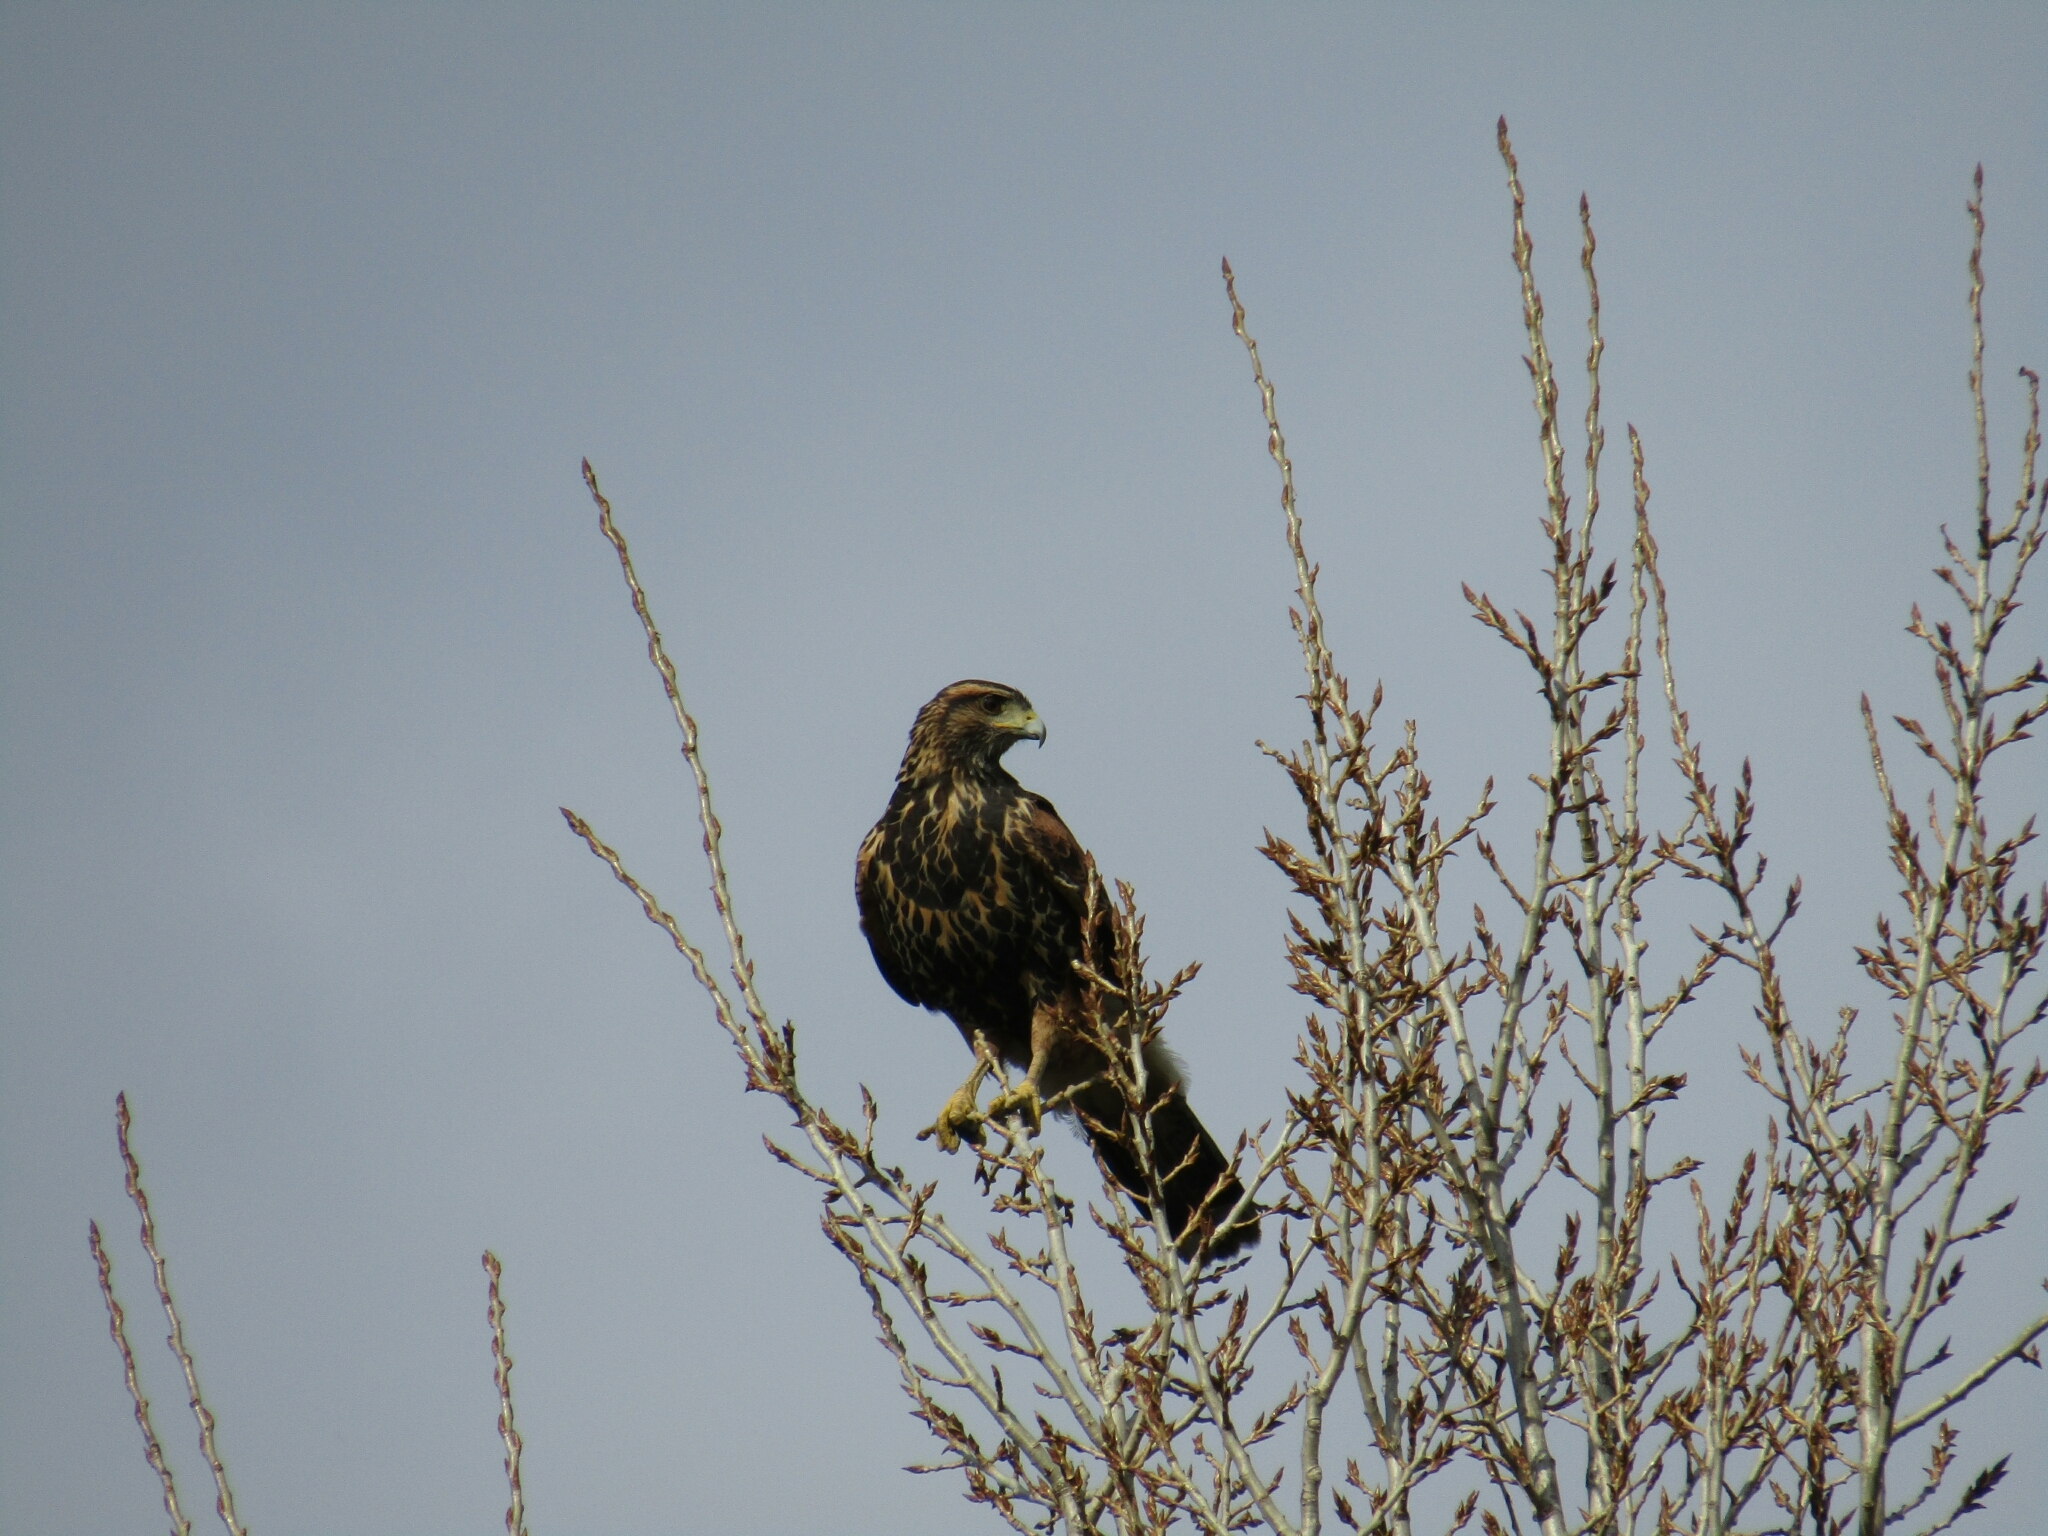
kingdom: Animalia
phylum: Chordata
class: Aves
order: Accipitriformes
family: Accipitridae
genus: Parabuteo
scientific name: Parabuteo unicinctus
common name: Harris's hawk
